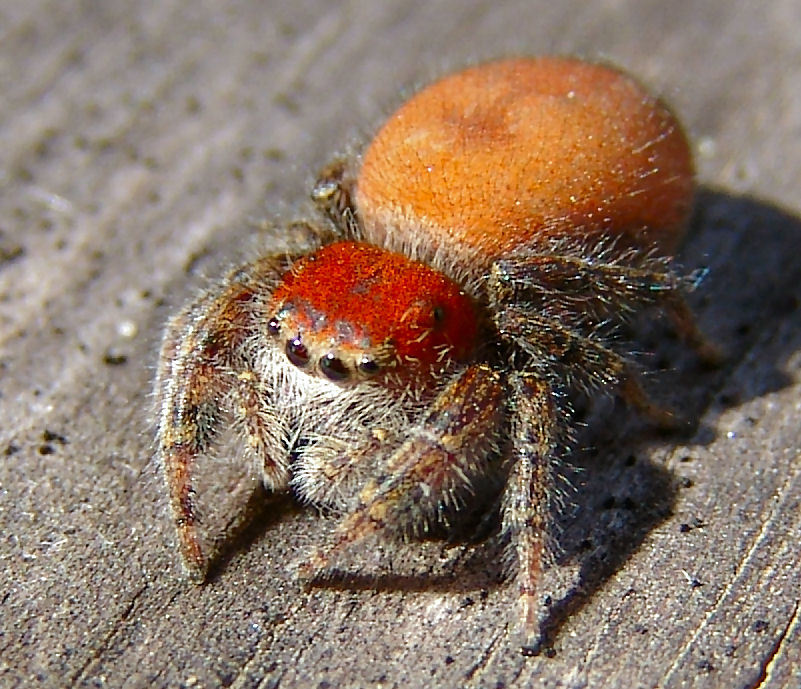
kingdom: Animalia
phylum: Arthropoda
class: Arachnida
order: Araneae
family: Salticidae
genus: Phidippus
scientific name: Phidippus cardinalis
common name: Cardinal jumper
